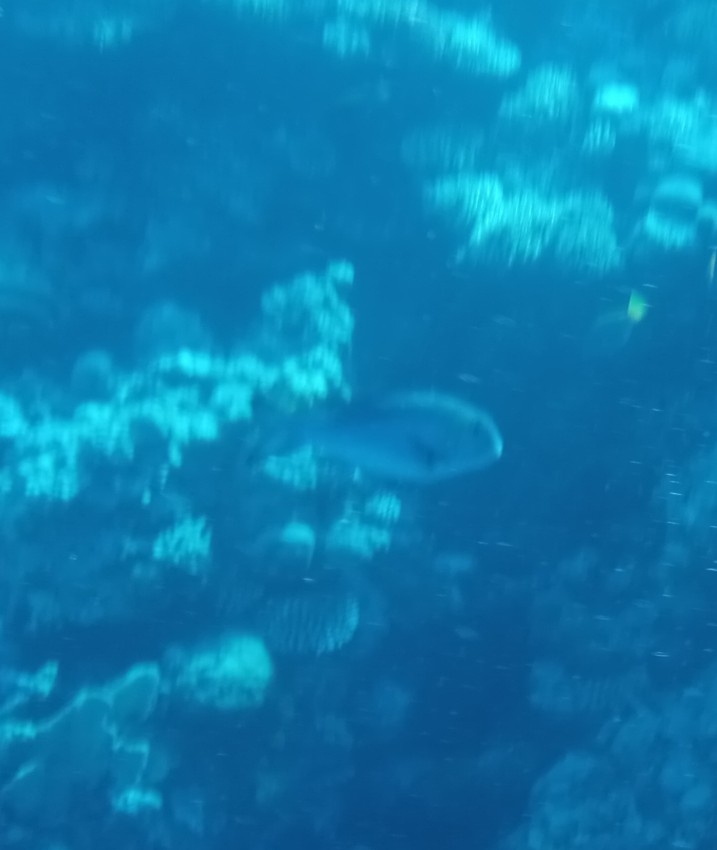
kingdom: Animalia
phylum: Chordata
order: Perciformes
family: Lethrinidae
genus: Monotaxis
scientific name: Monotaxis grandoculis
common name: Bigeye emperor
